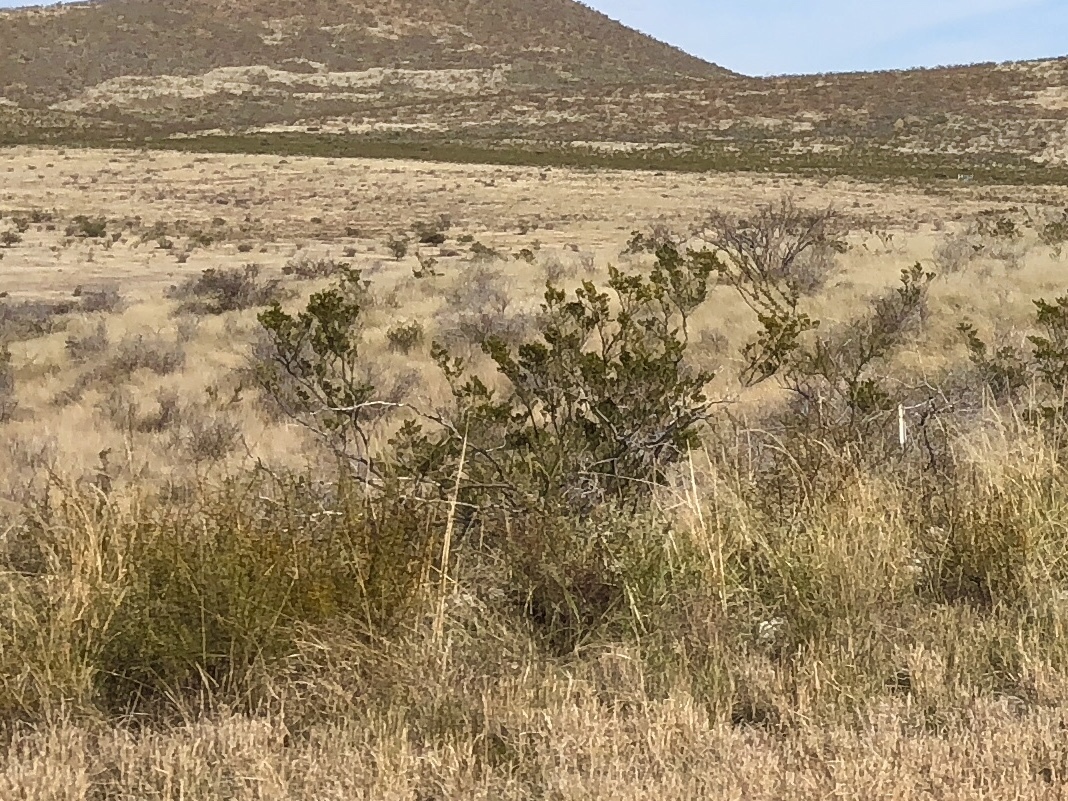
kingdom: Plantae
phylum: Tracheophyta
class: Magnoliopsida
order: Zygophyllales
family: Zygophyllaceae
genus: Larrea
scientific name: Larrea tridentata
